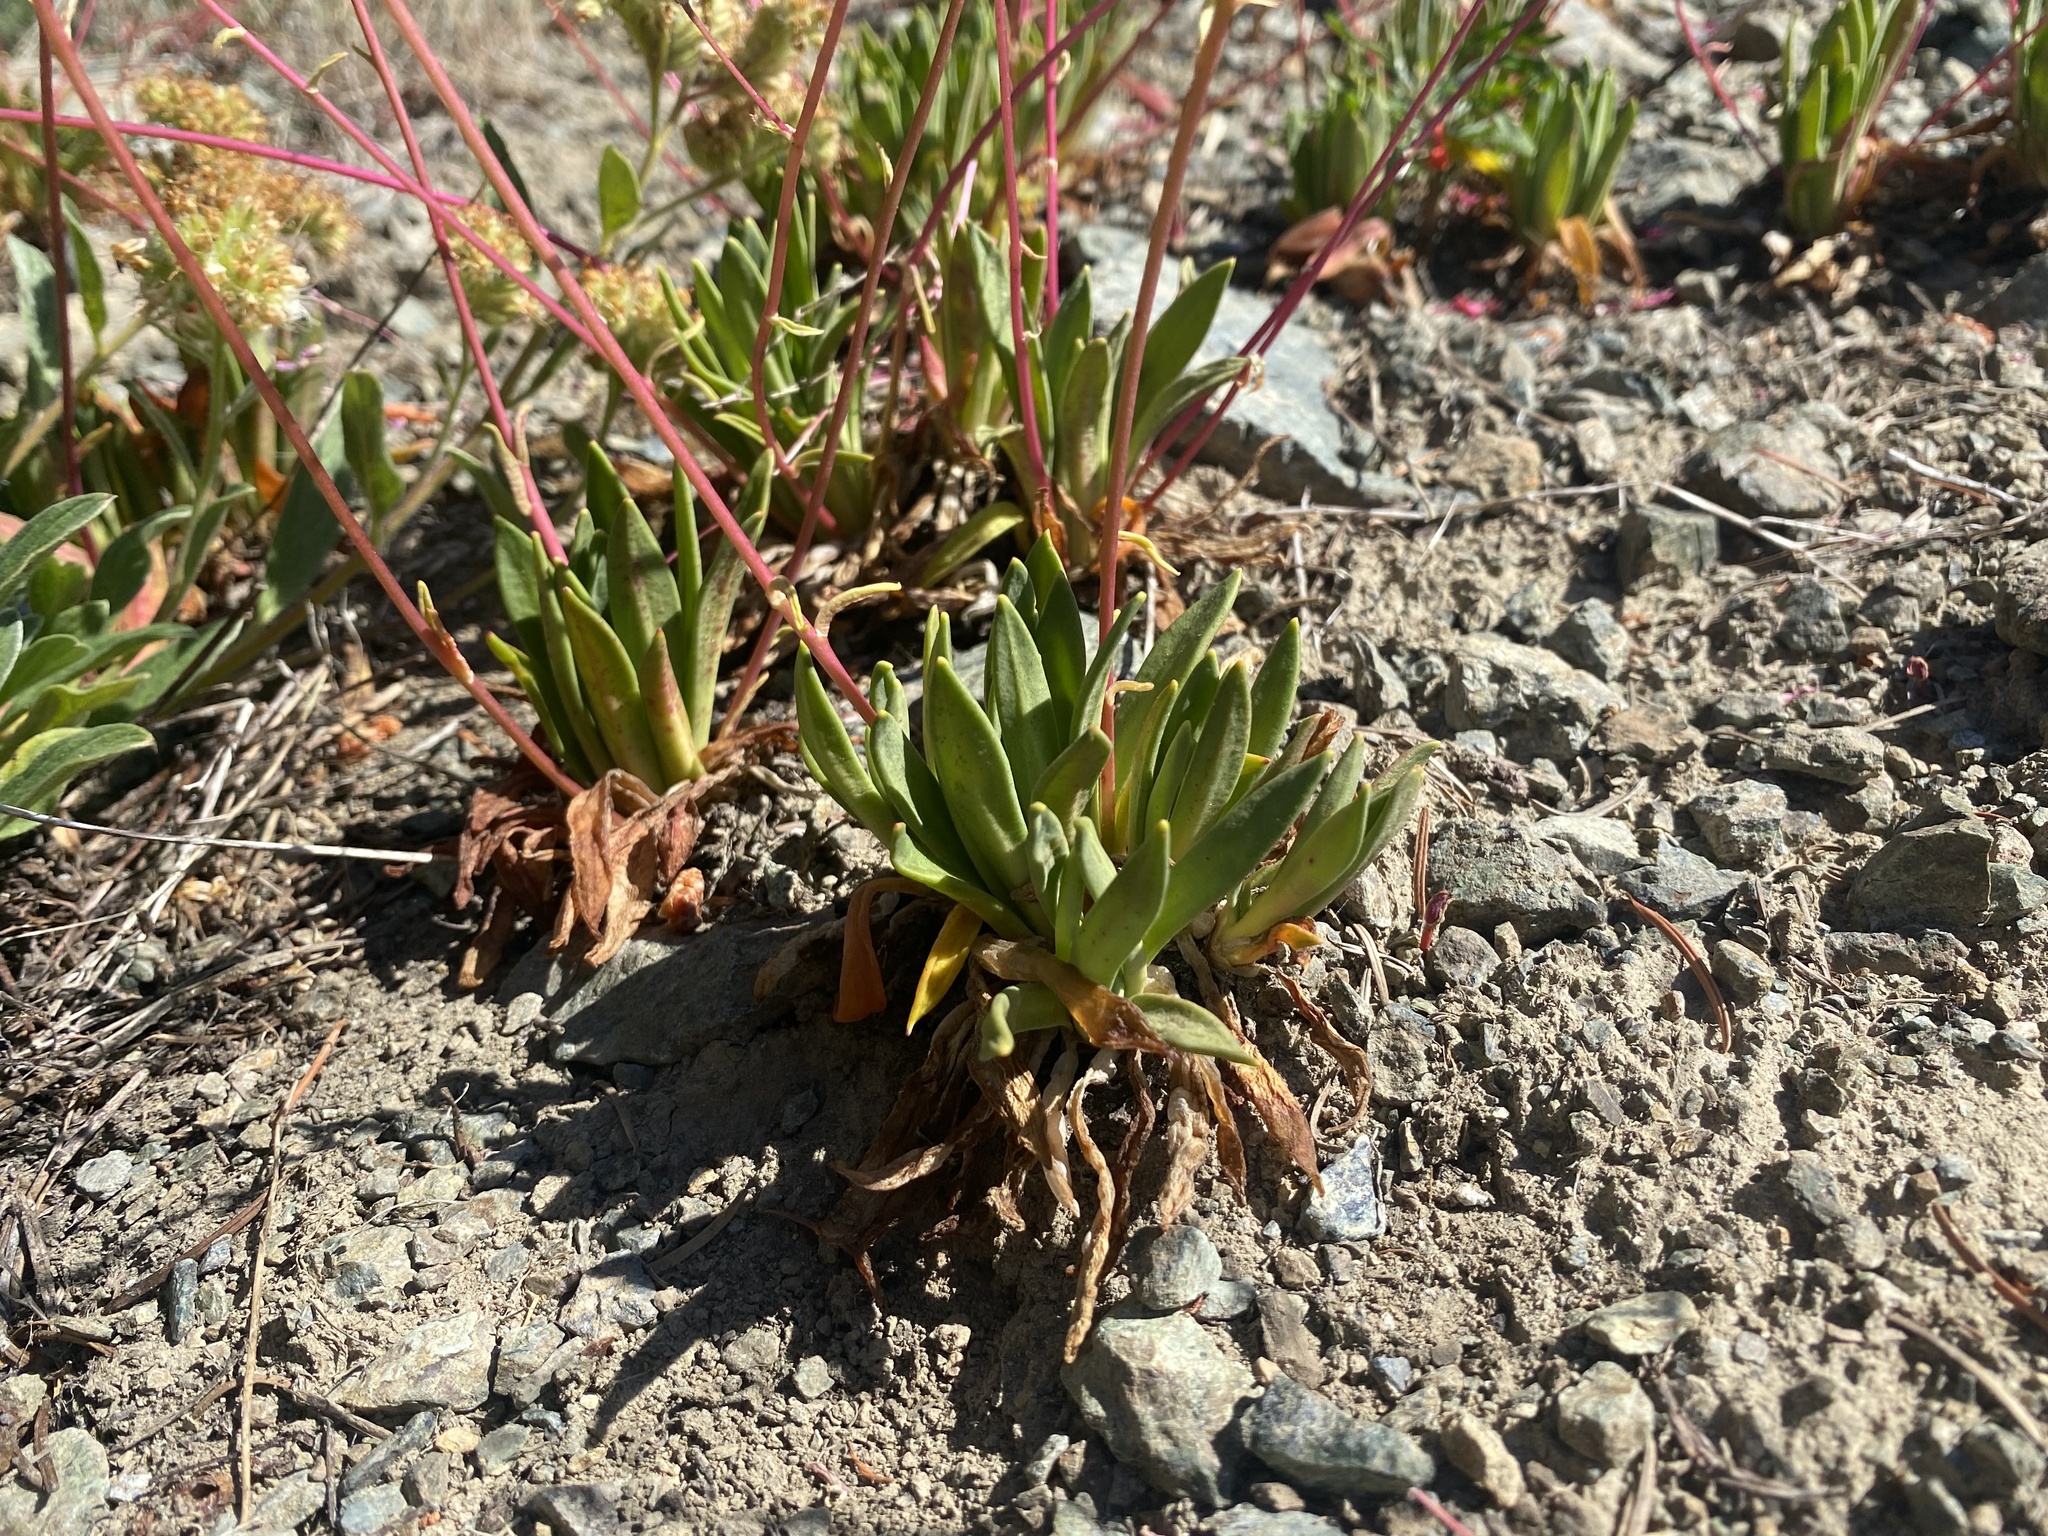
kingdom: Plantae
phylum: Tracheophyta
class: Magnoliopsida
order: Caryophyllales
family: Montiaceae
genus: Lewisia
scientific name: Lewisia columbiana
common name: Columbia lewisia
